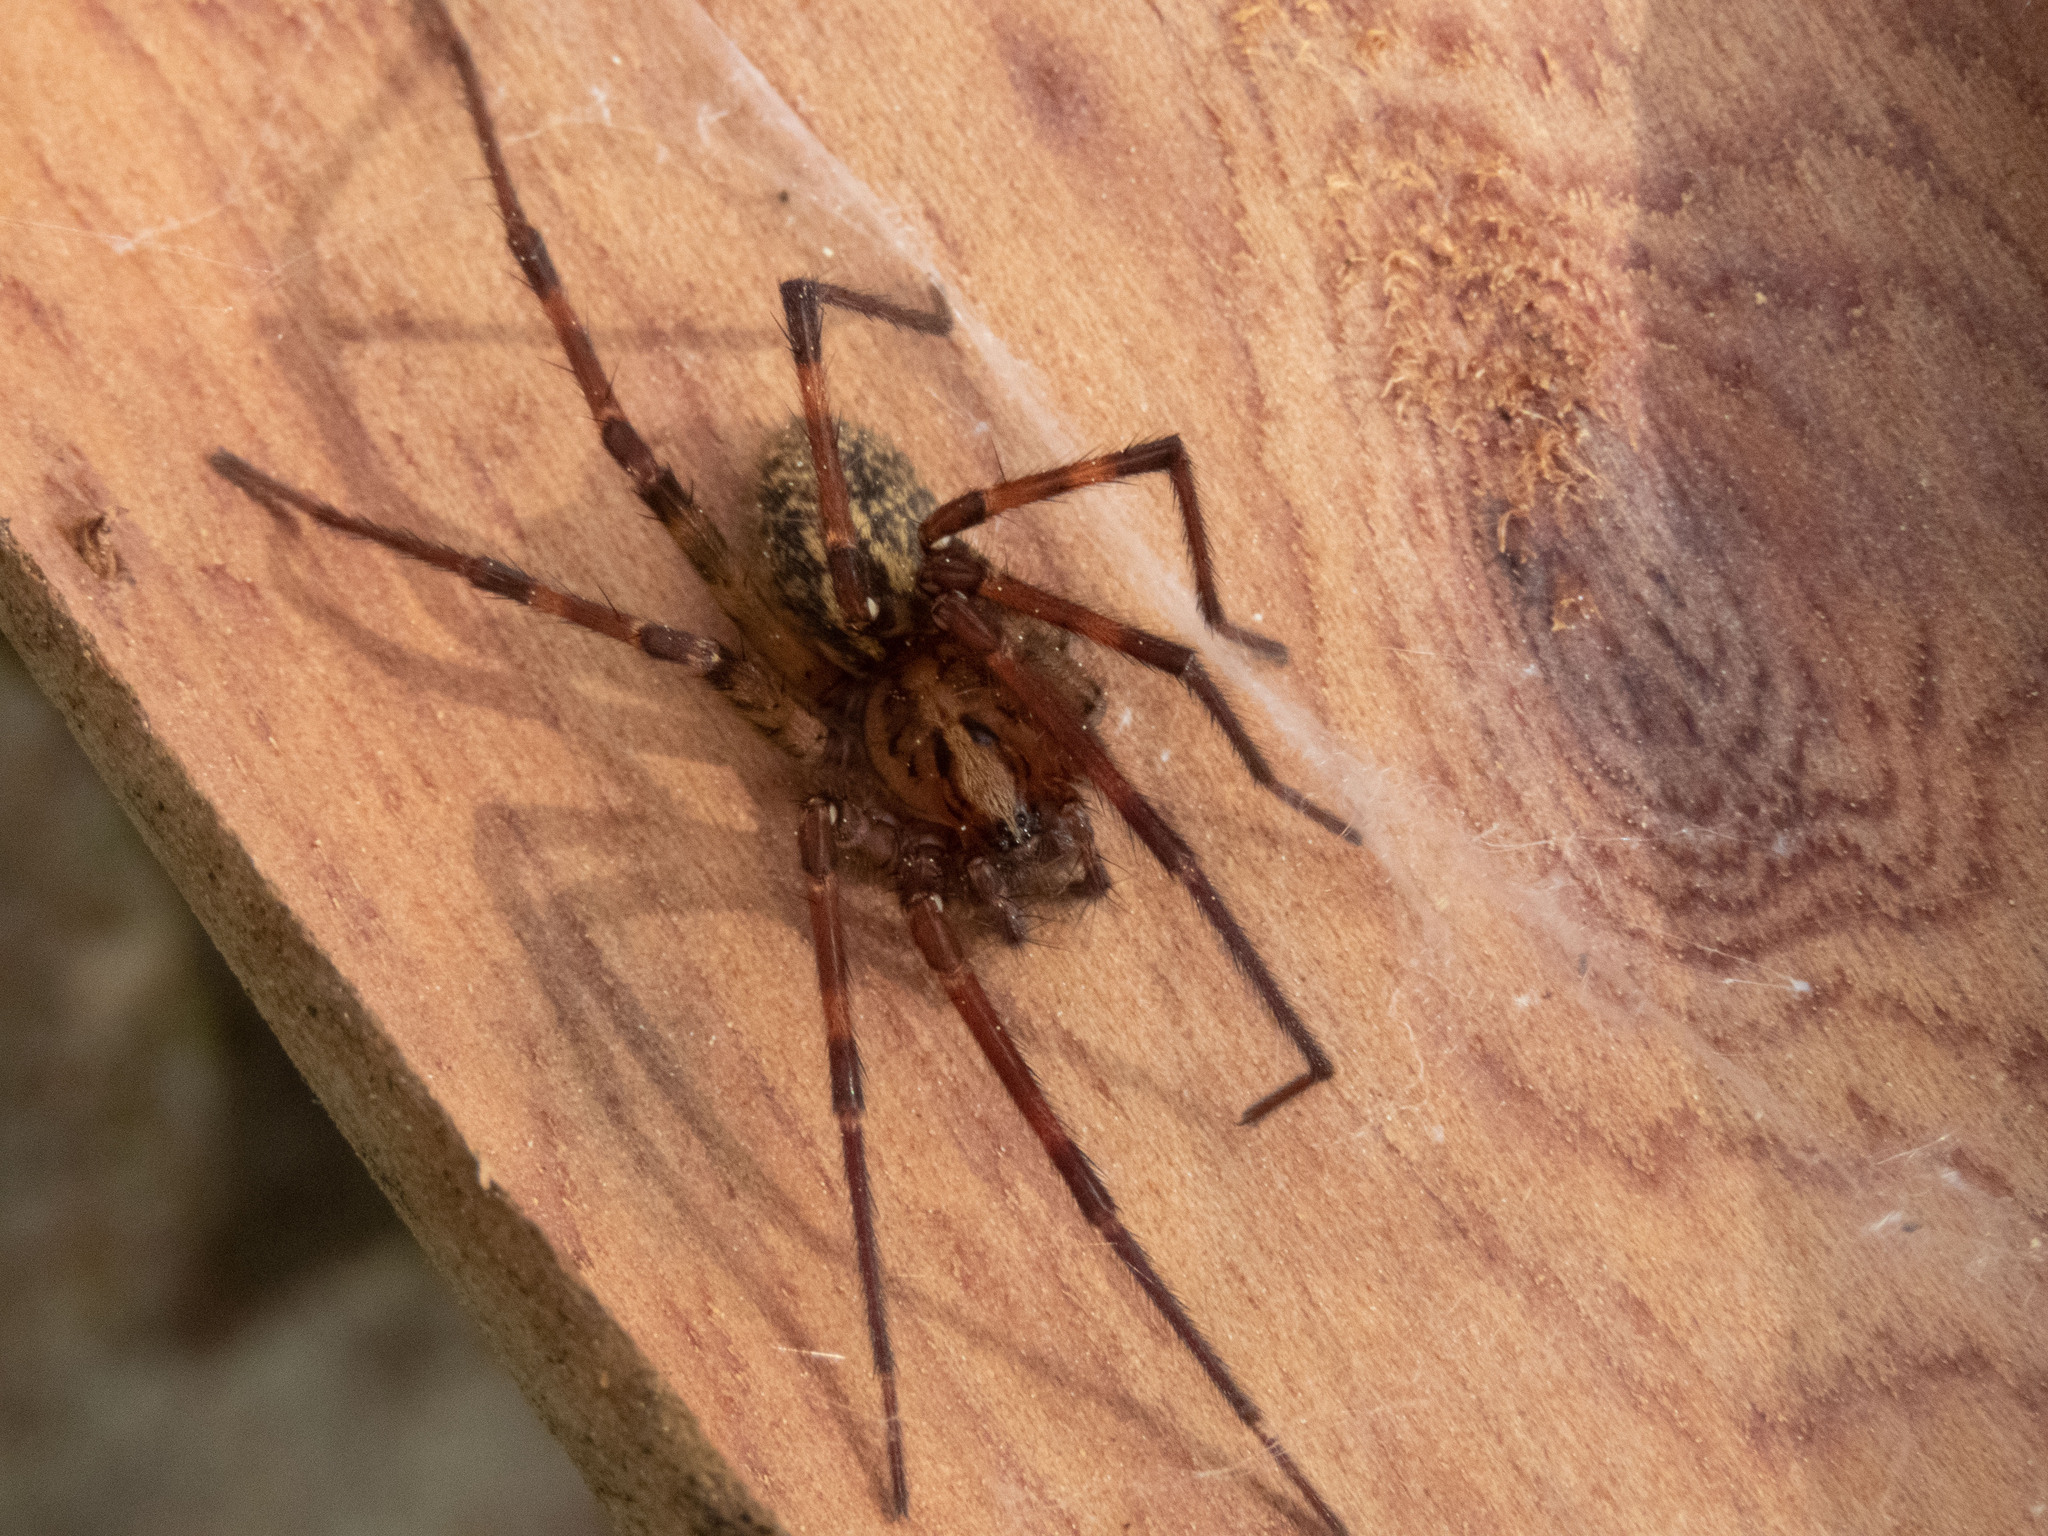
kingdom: Animalia
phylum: Arthropoda
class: Arachnida
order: Araneae
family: Agelenidae
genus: Eratigena
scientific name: Eratigena inermis
